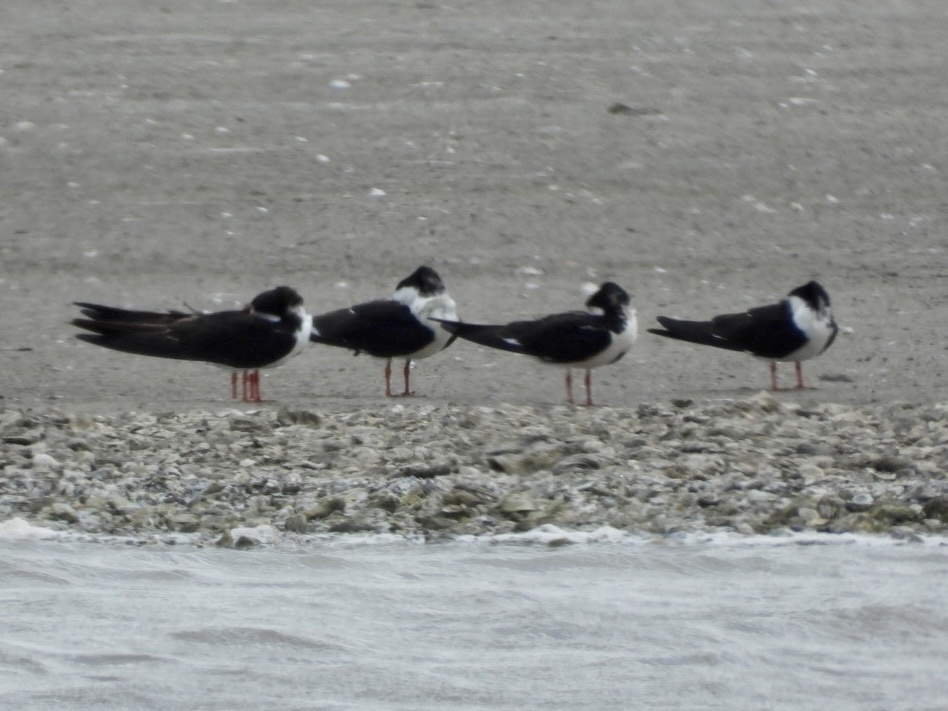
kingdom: Animalia
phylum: Chordata
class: Aves
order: Charadriiformes
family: Laridae
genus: Rynchops
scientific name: Rynchops niger
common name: Black skimmer
